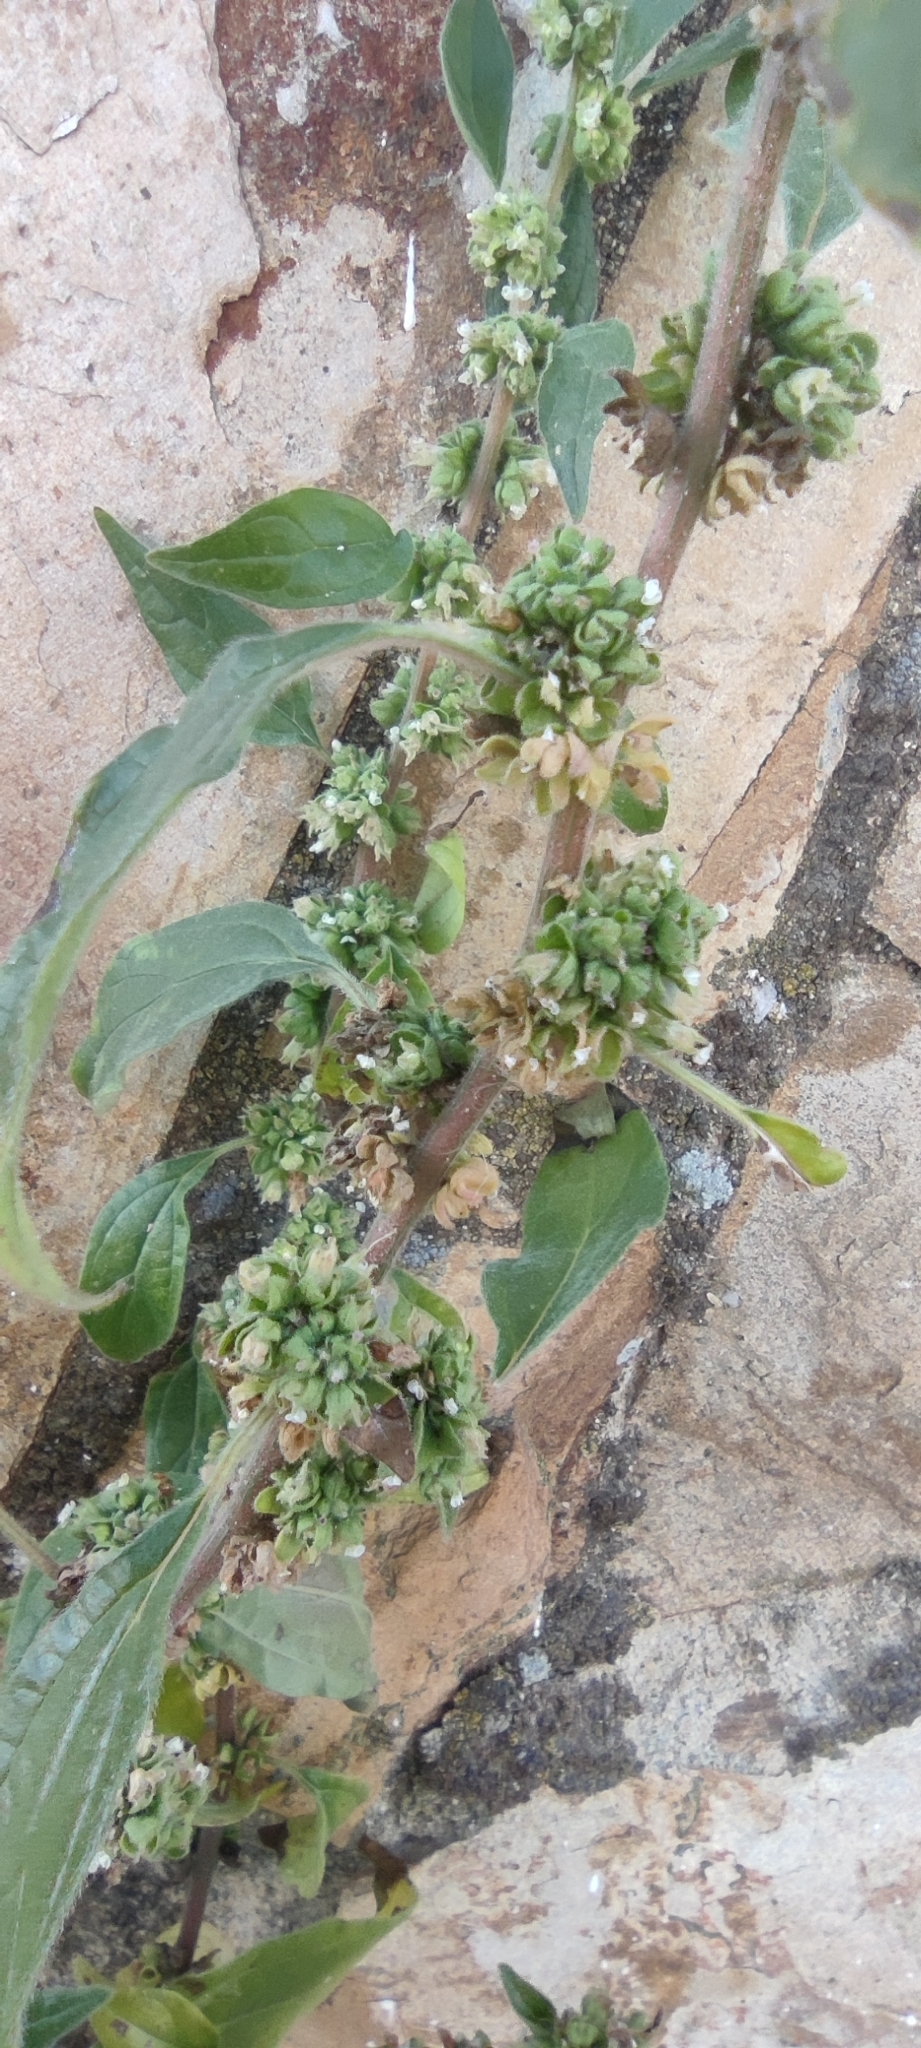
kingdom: Plantae
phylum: Tracheophyta
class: Magnoliopsida
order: Rosales
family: Urticaceae
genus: Parietaria
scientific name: Parietaria judaica
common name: Pellitory-of-the-wall
